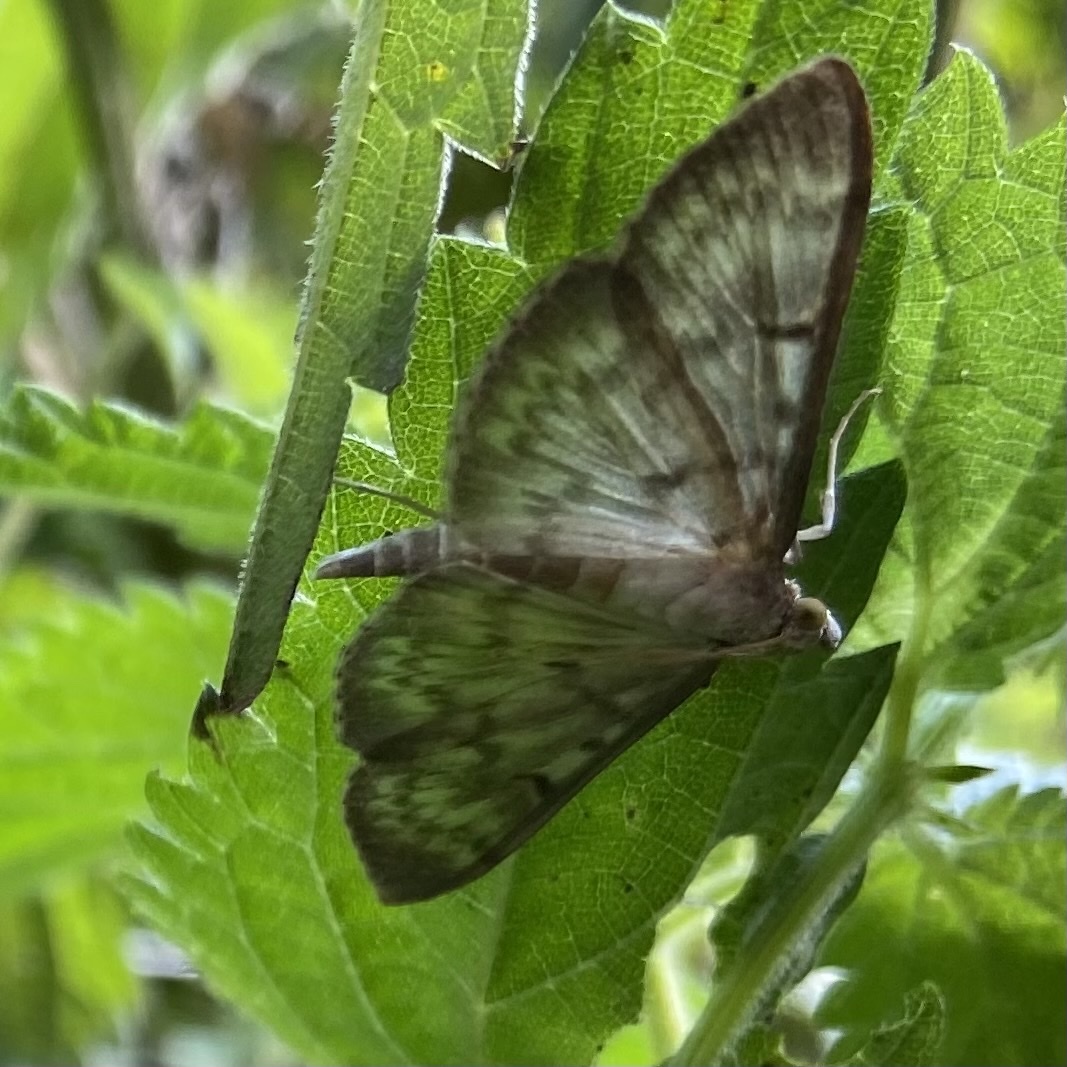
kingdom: Animalia
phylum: Arthropoda
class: Insecta
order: Lepidoptera
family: Crambidae
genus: Patania
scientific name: Patania ruralis
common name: Mother of pearl
